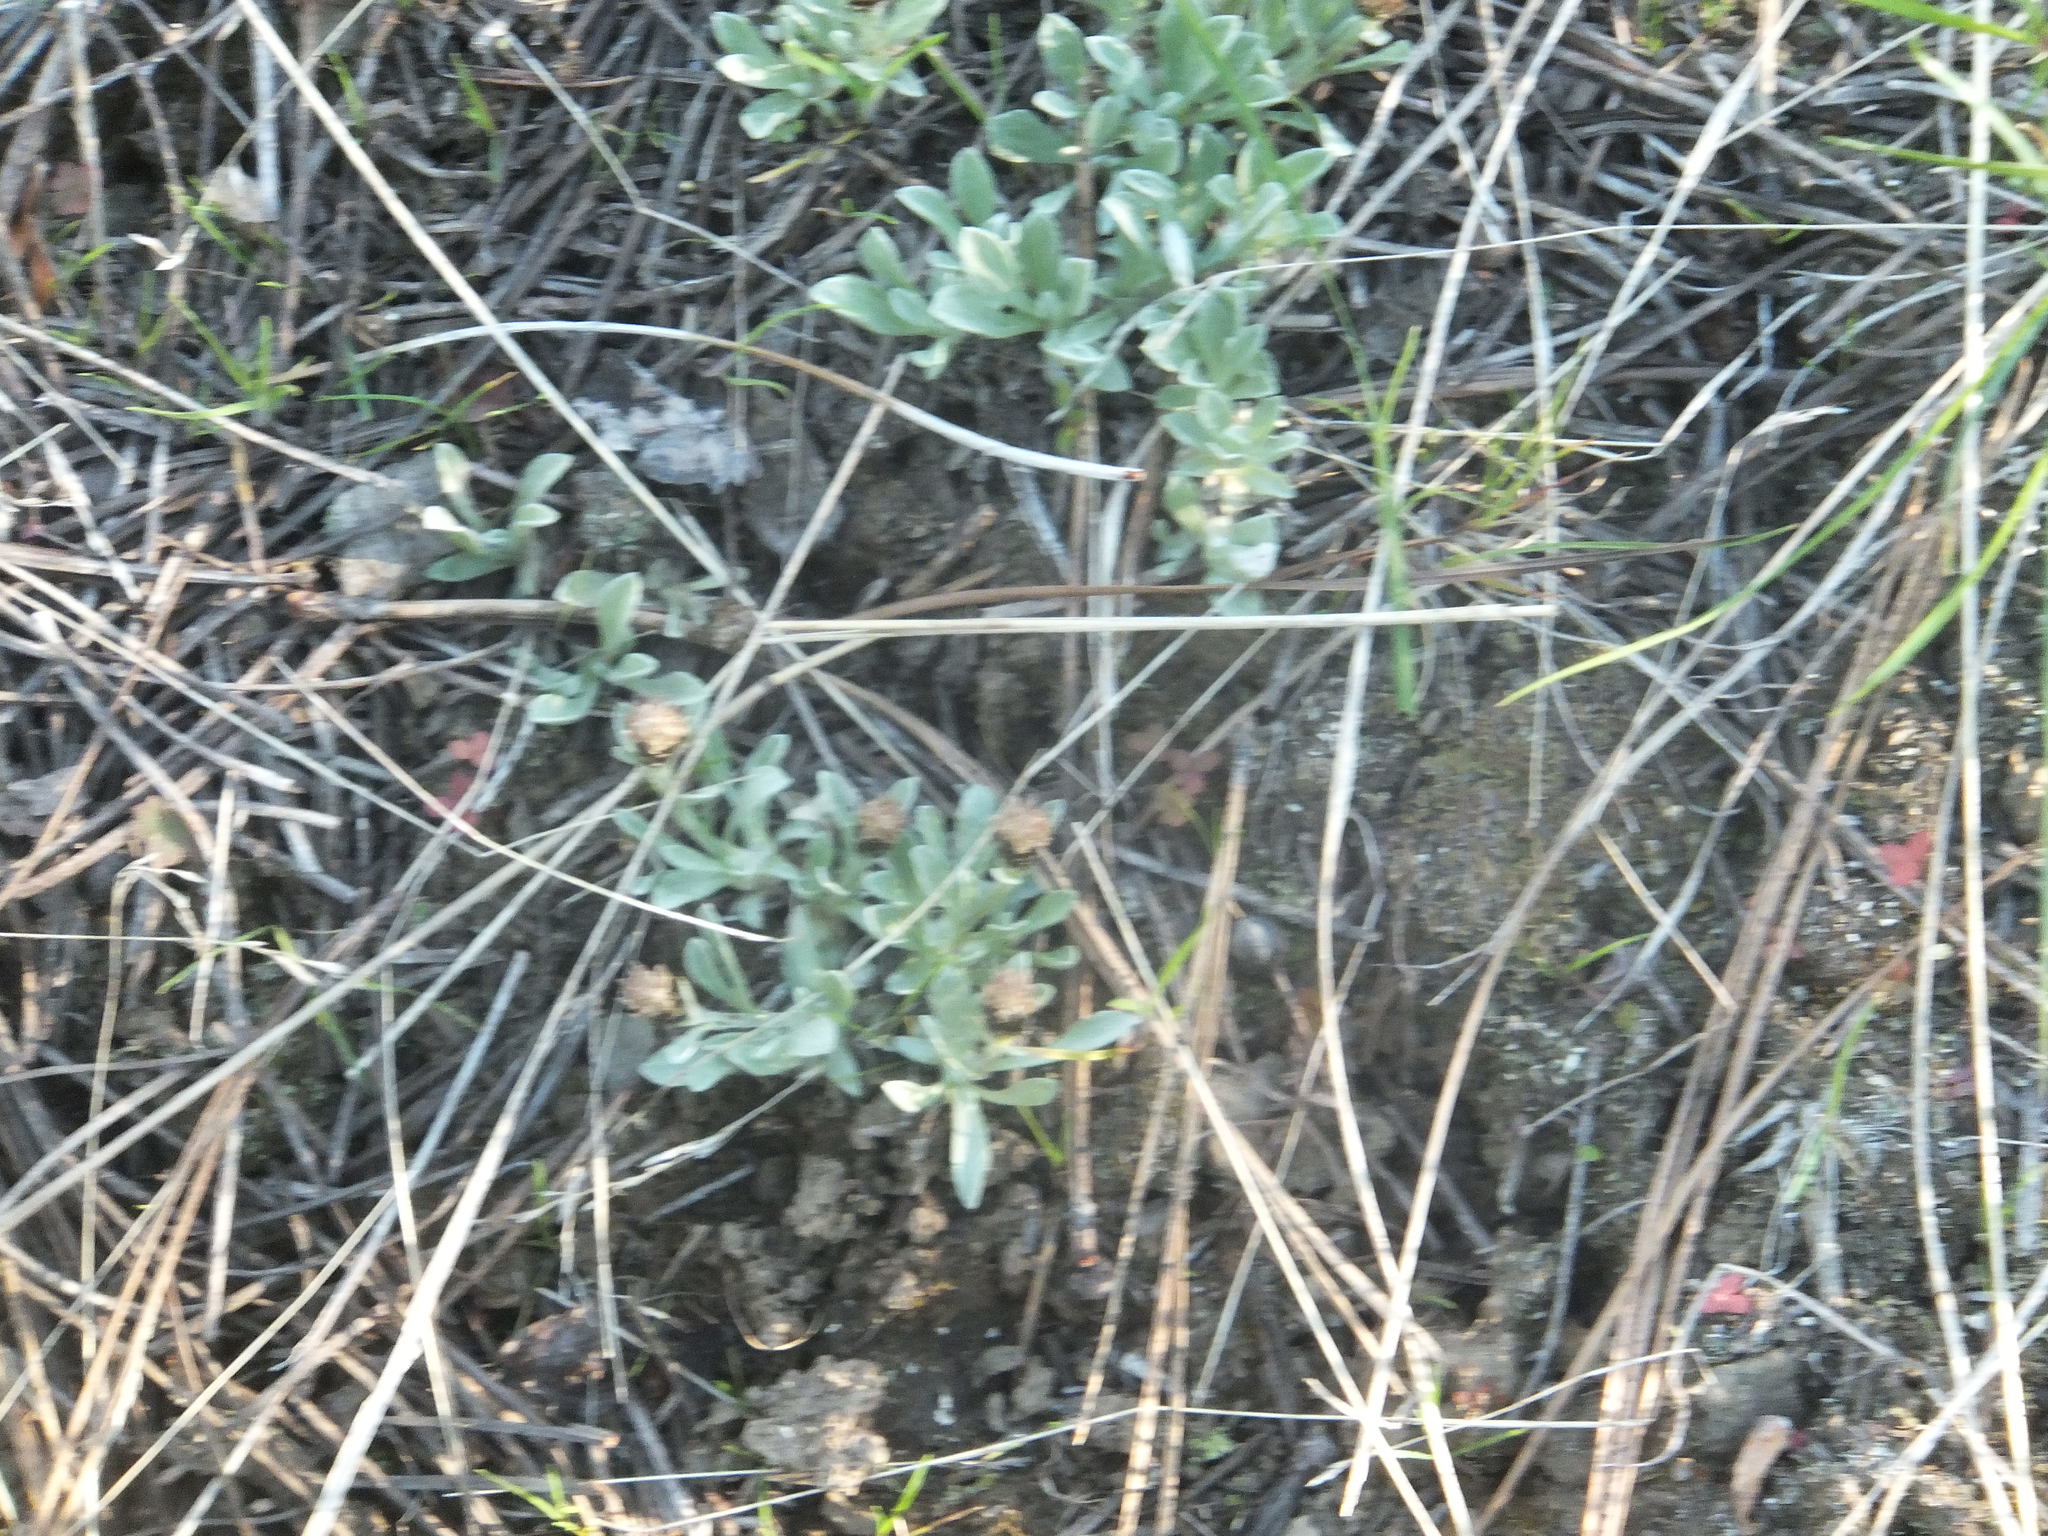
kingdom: Plantae
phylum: Tracheophyta
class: Magnoliopsida
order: Asterales
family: Asteraceae
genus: Antennaria
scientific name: Antennaria dimorpha
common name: Cushion pussytoes
